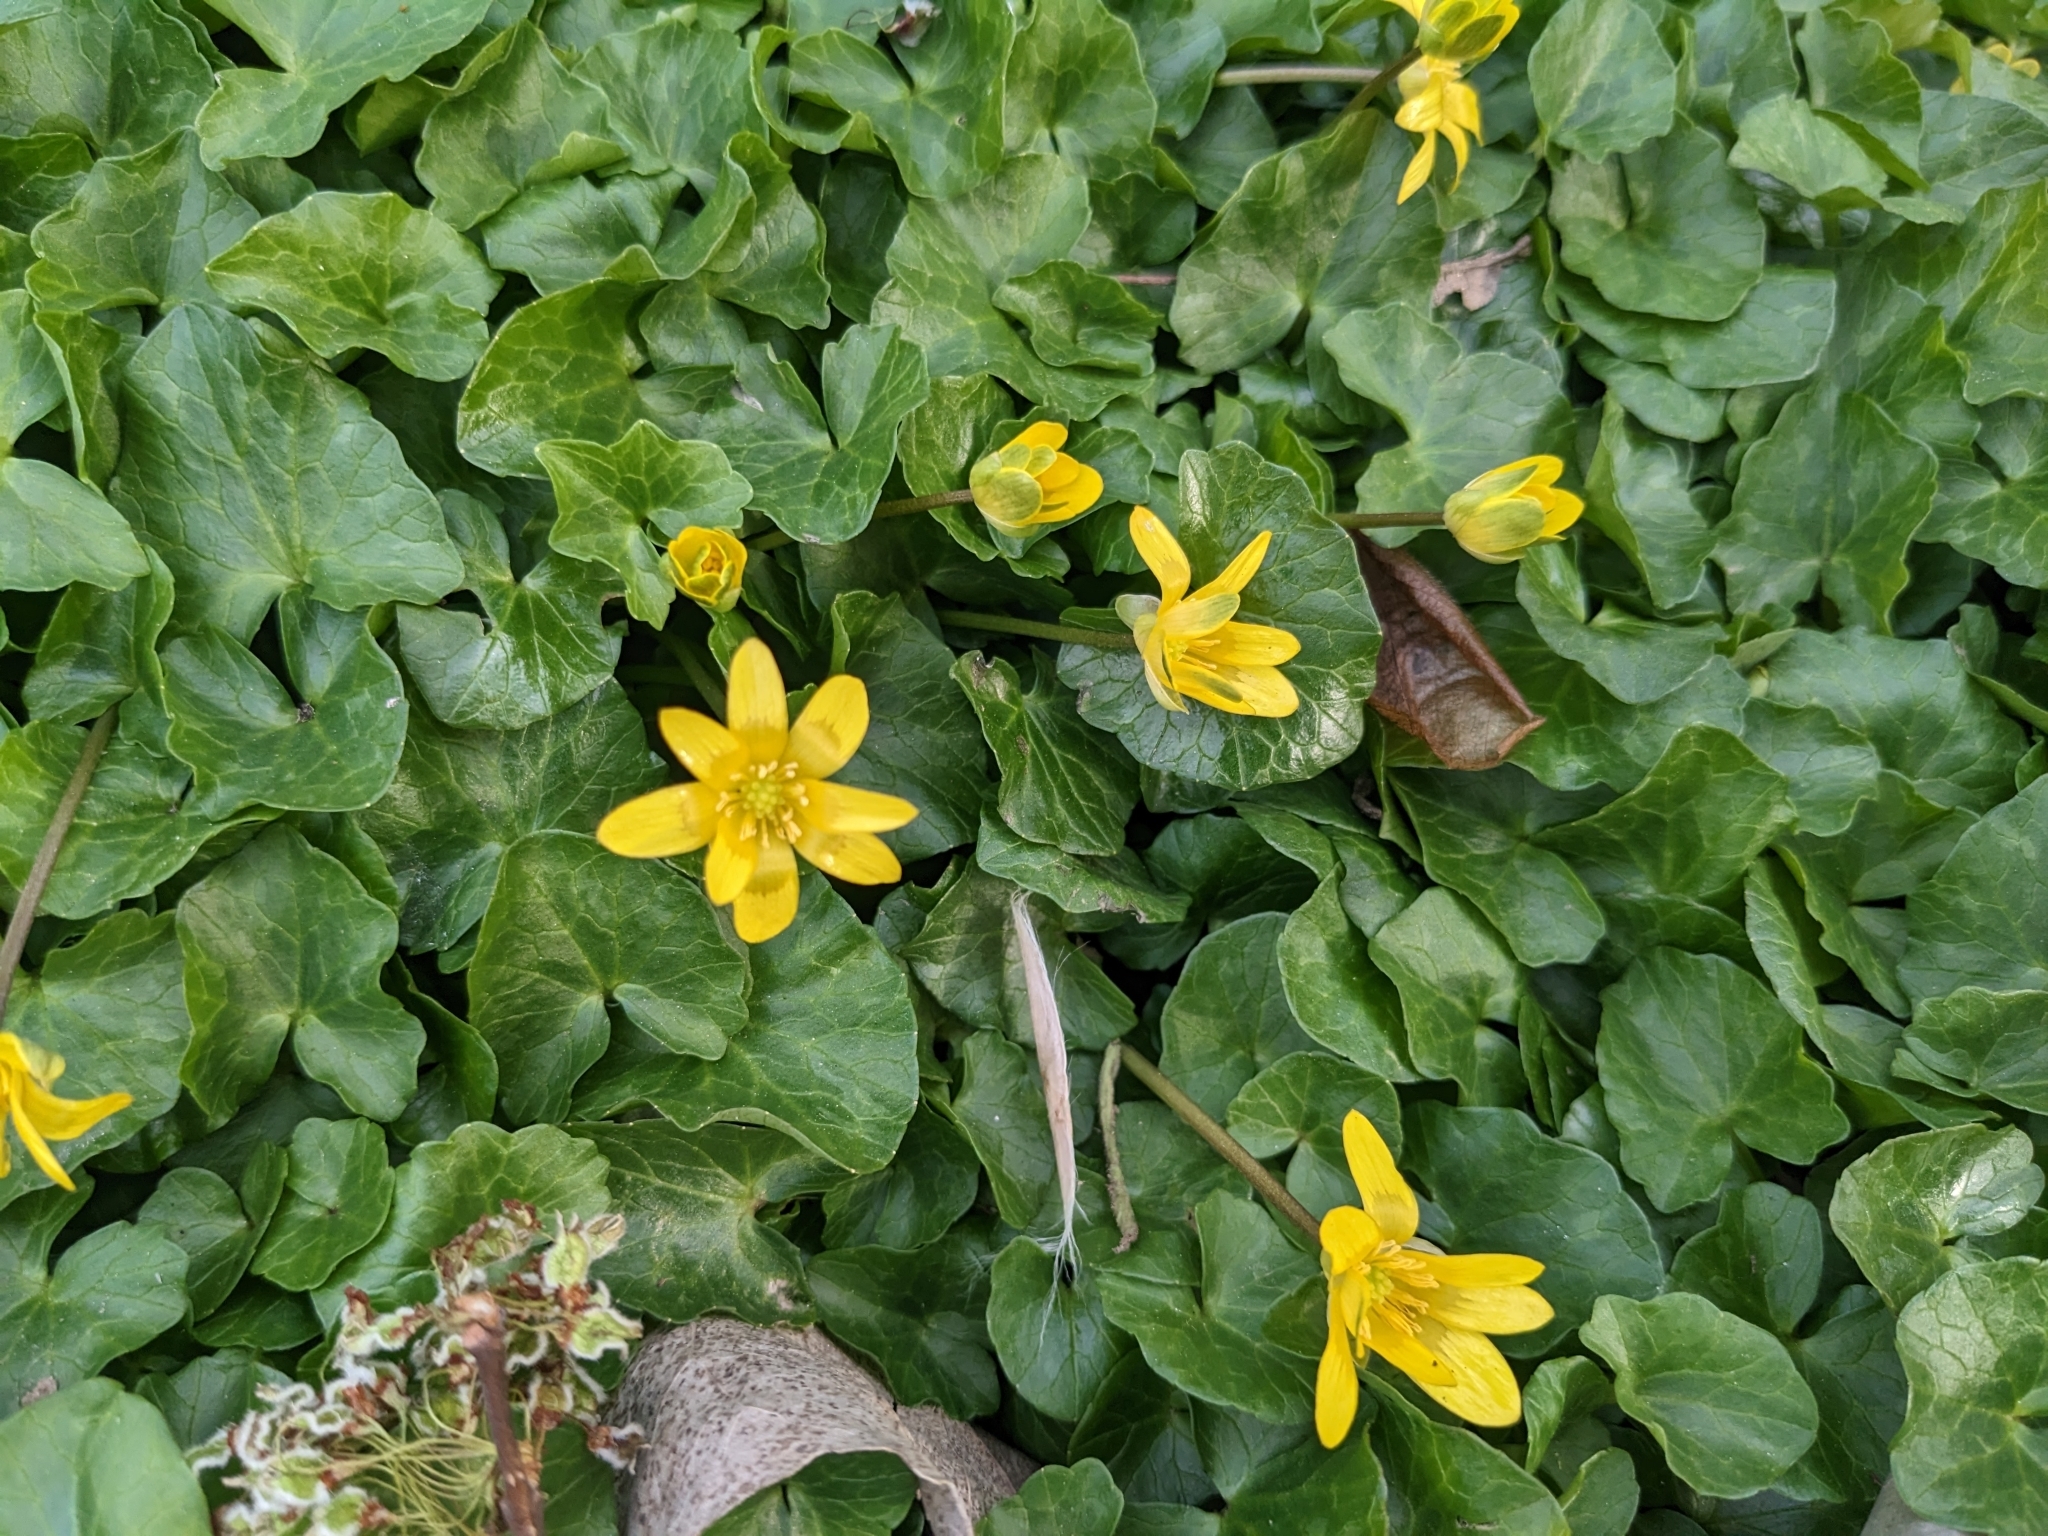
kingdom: Plantae
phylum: Tracheophyta
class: Magnoliopsida
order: Ranunculales
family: Ranunculaceae
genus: Ficaria
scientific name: Ficaria verna
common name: Lesser celandine
